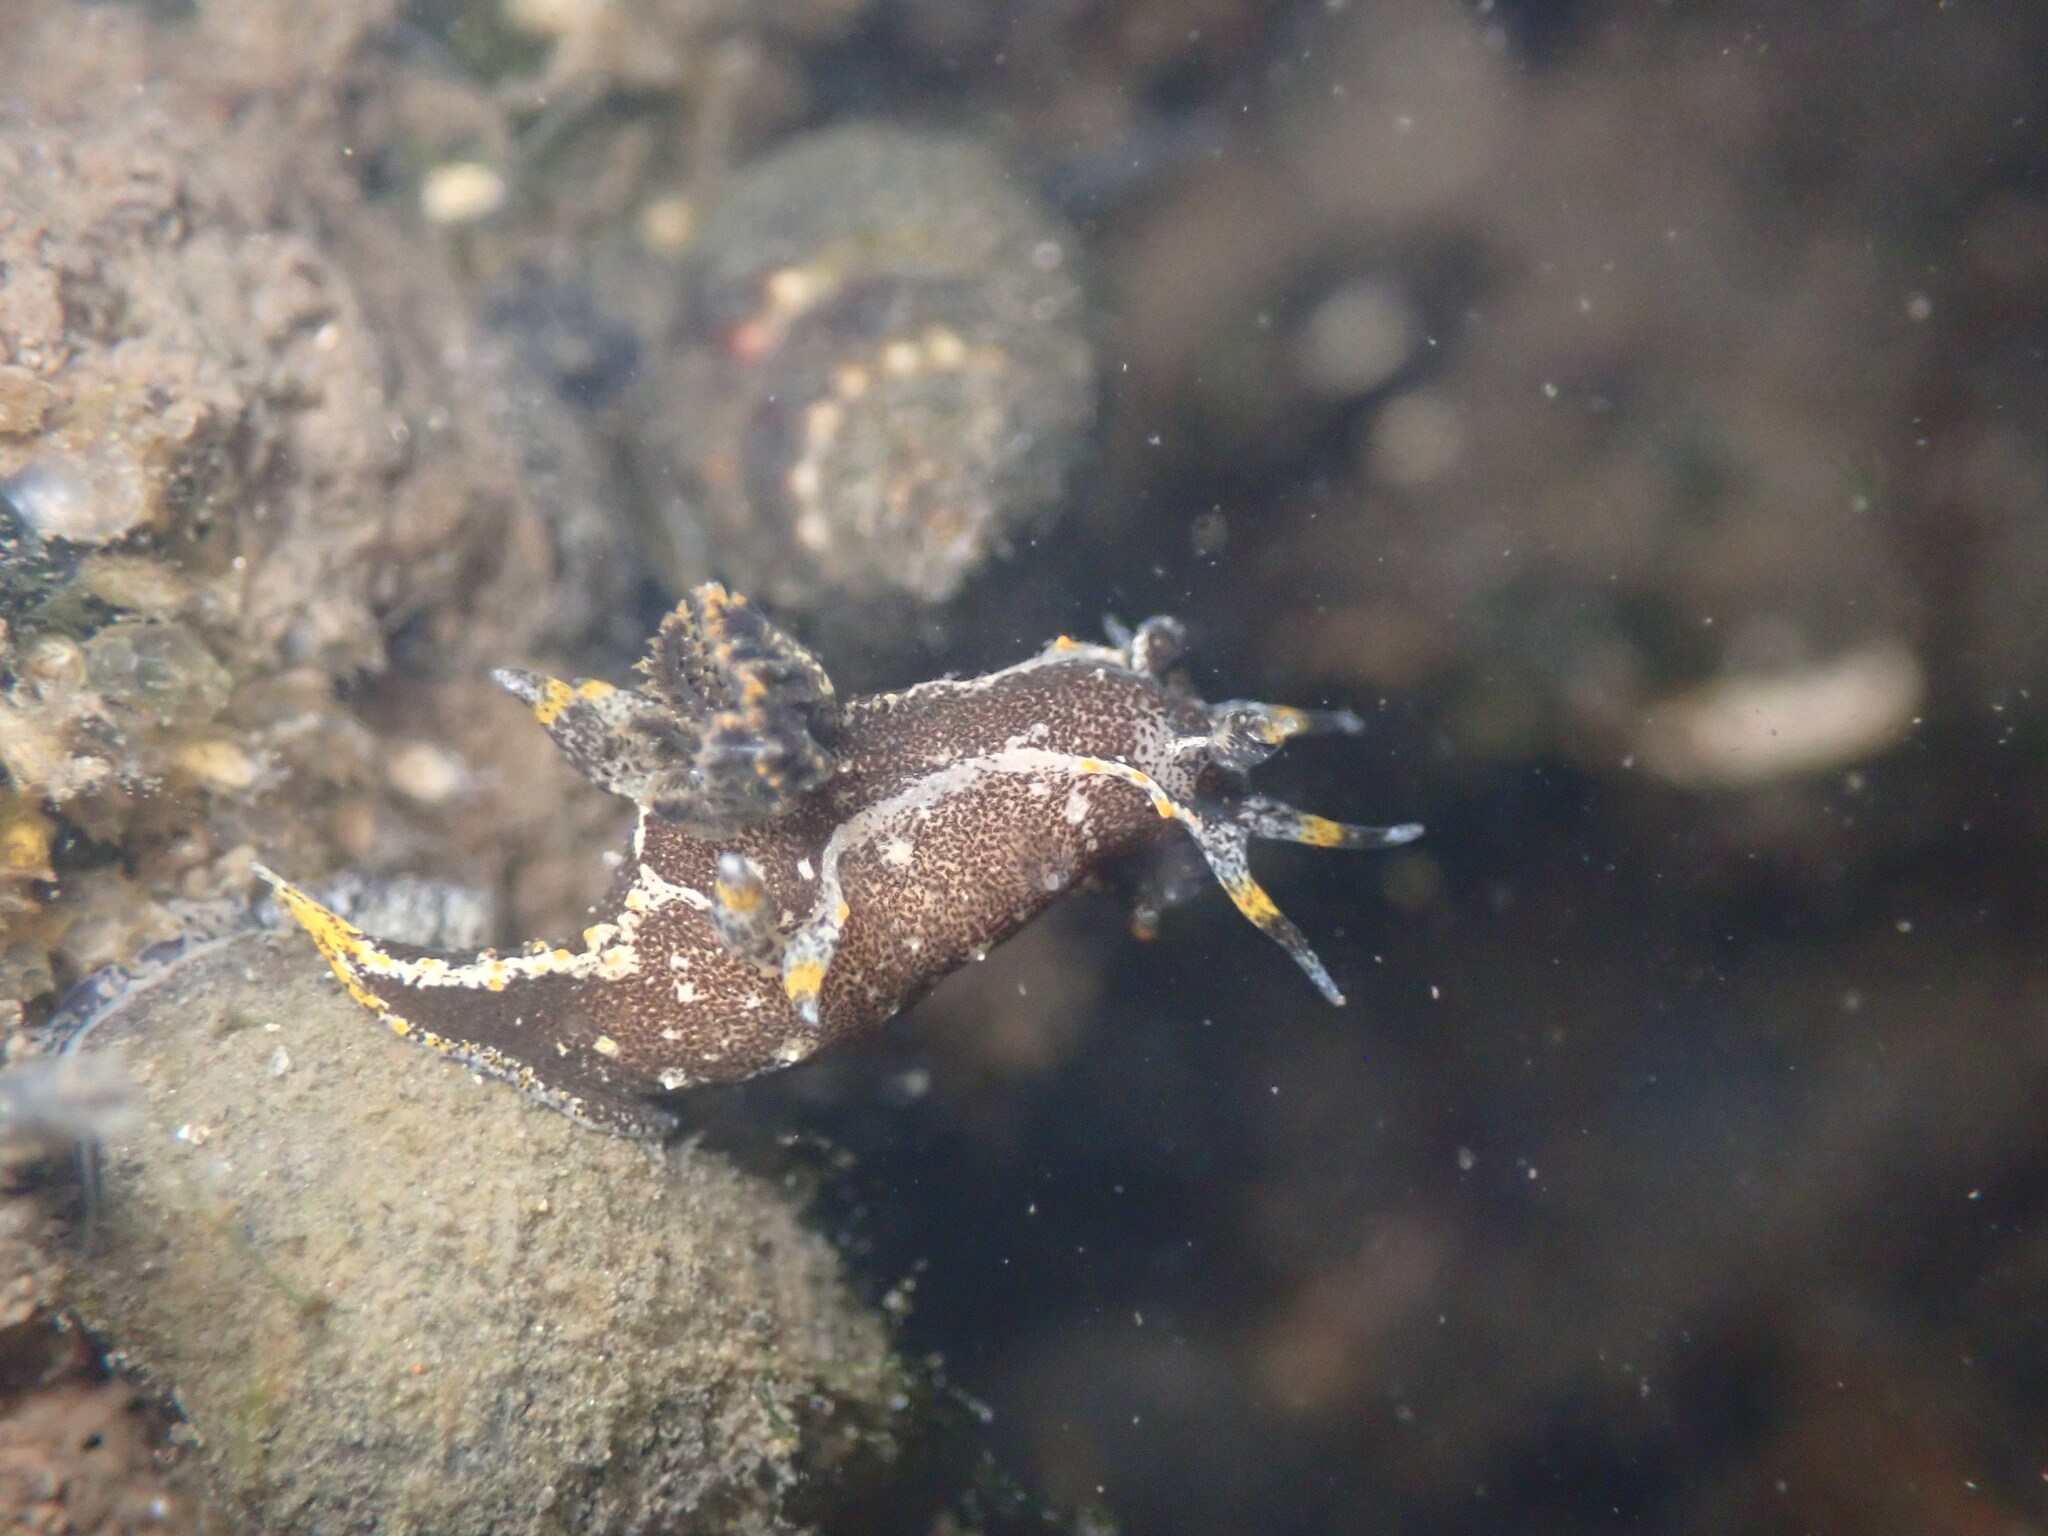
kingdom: Animalia
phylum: Mollusca
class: Gastropoda
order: Nudibranchia
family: Polyceridae
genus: Polycera
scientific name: Polycera hedgpethi
